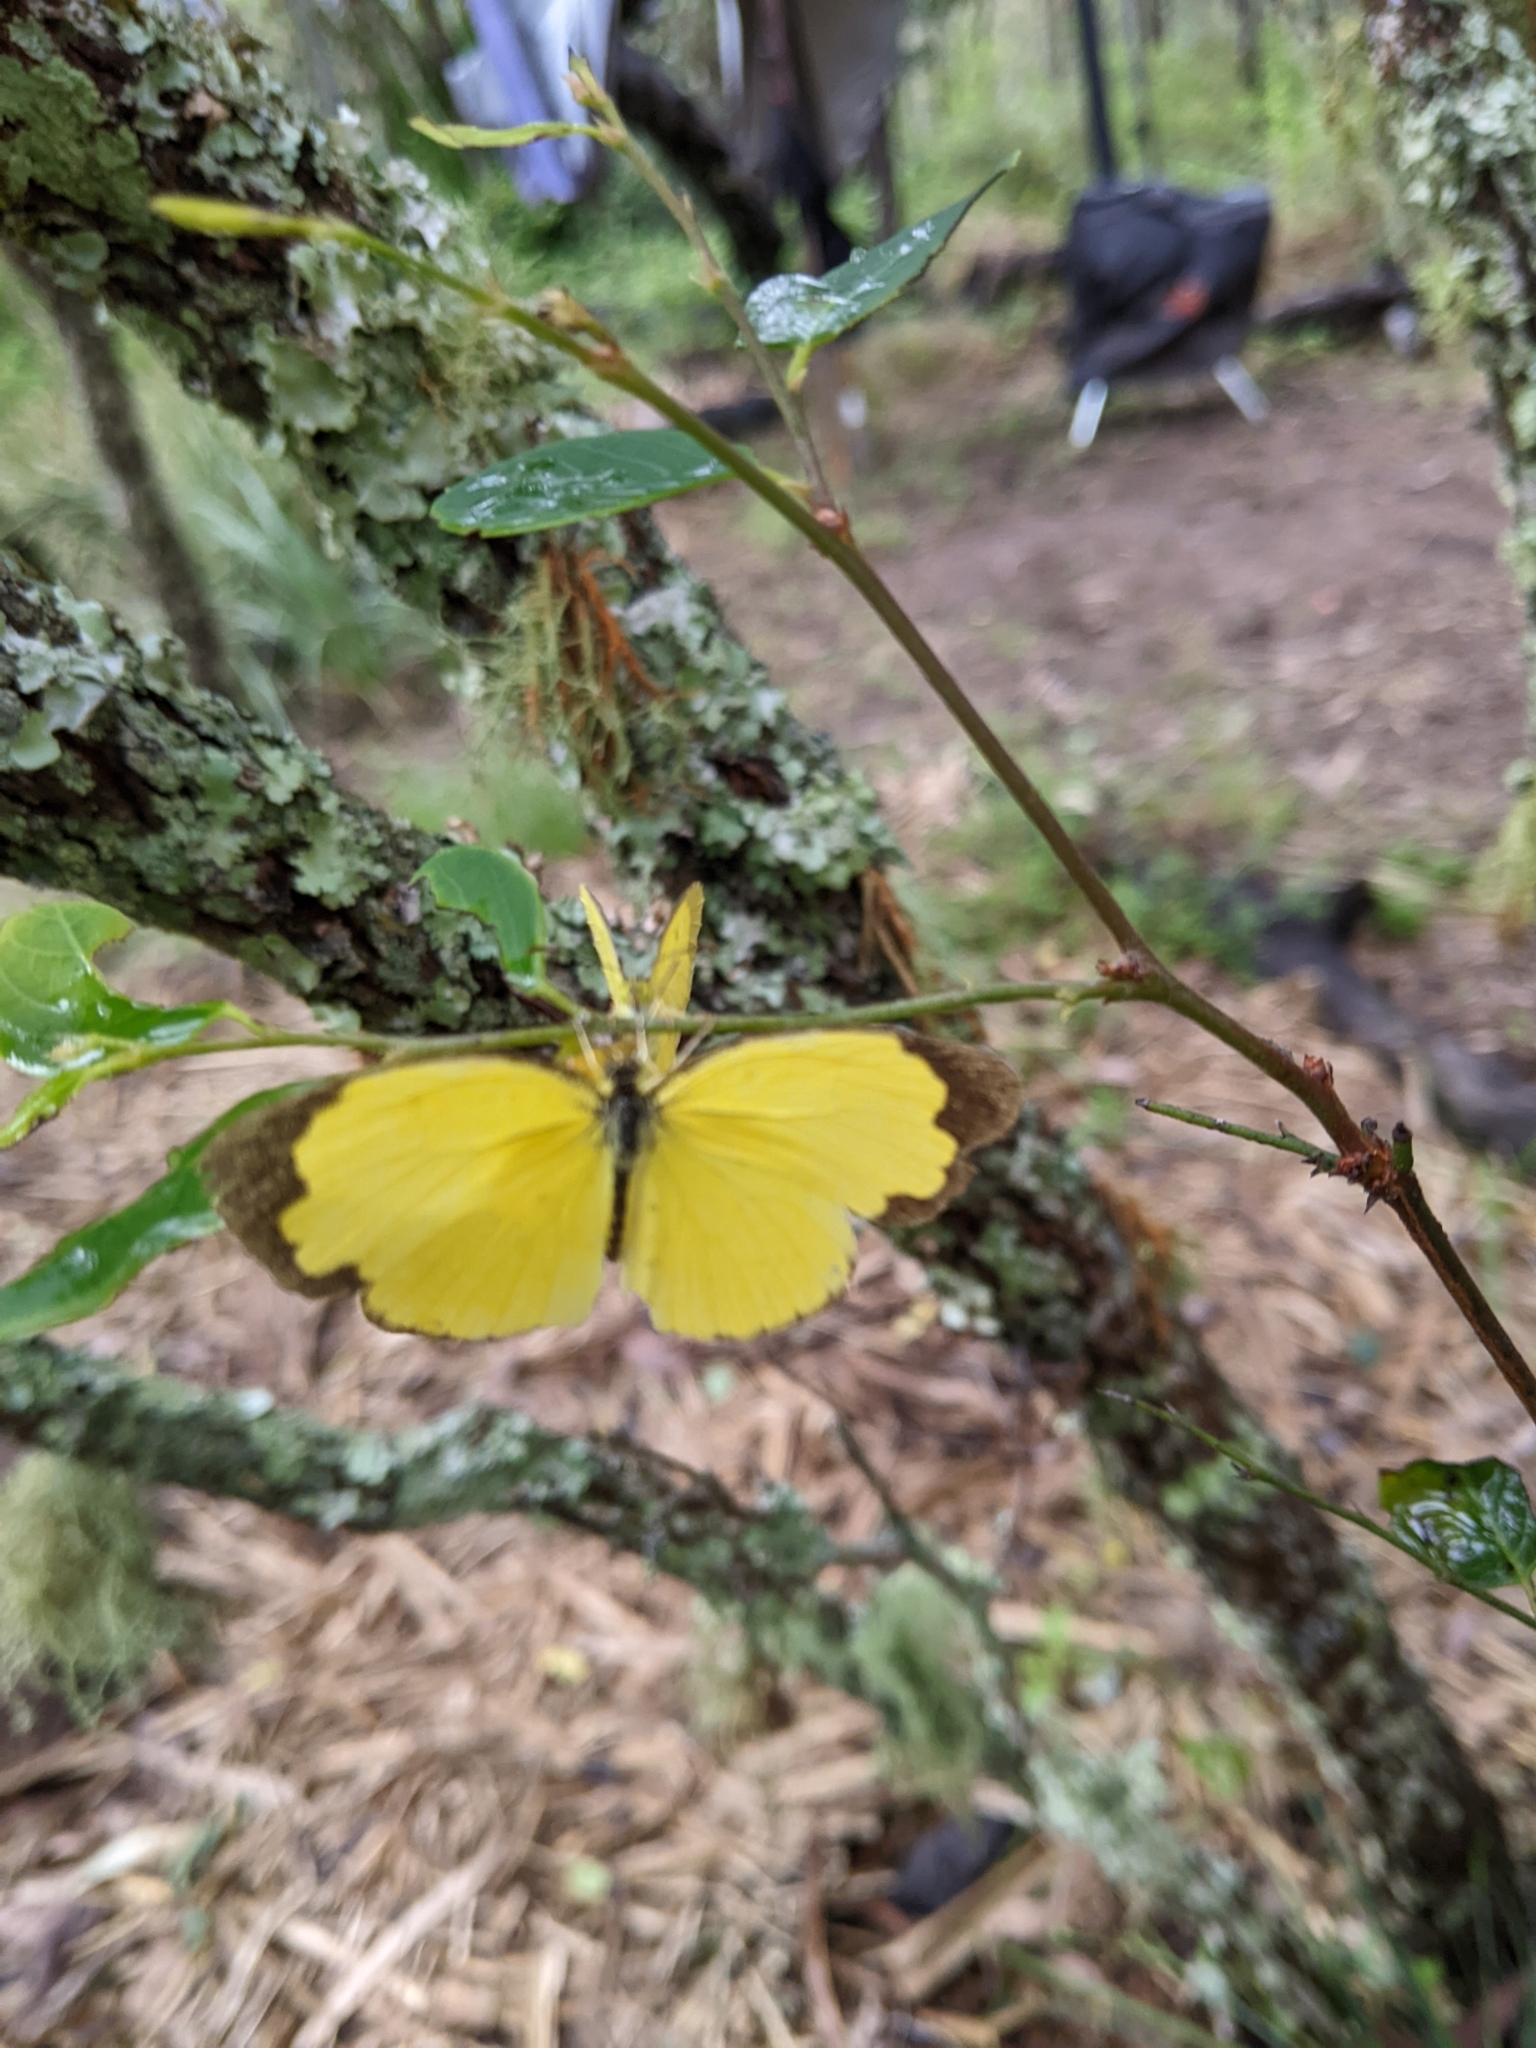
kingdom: Animalia
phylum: Arthropoda
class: Insecta
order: Lepidoptera
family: Pieridae
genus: Eurema
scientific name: Eurema hecabe
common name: Pale grass yellow
